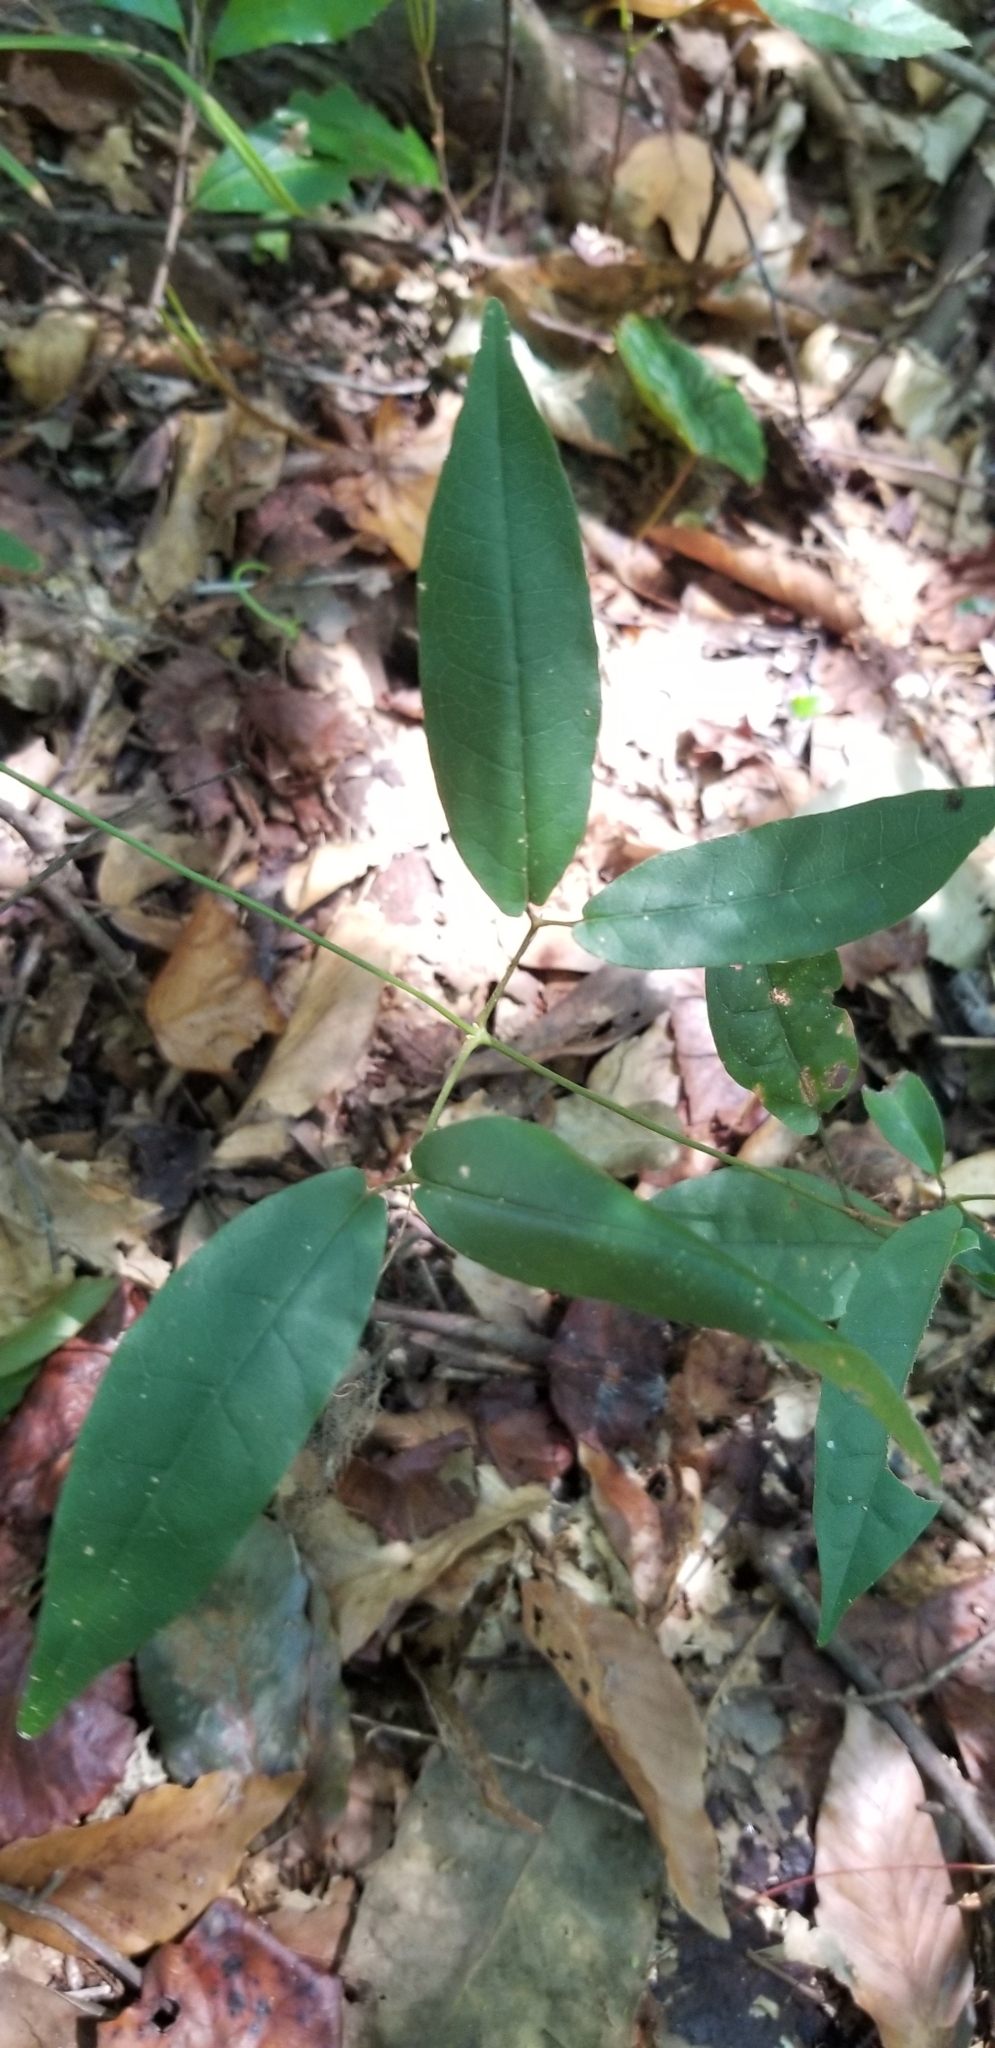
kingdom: Plantae
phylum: Tracheophyta
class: Magnoliopsida
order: Lamiales
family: Bignoniaceae
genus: Bignonia
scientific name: Bignonia capreolata
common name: Crossvine
